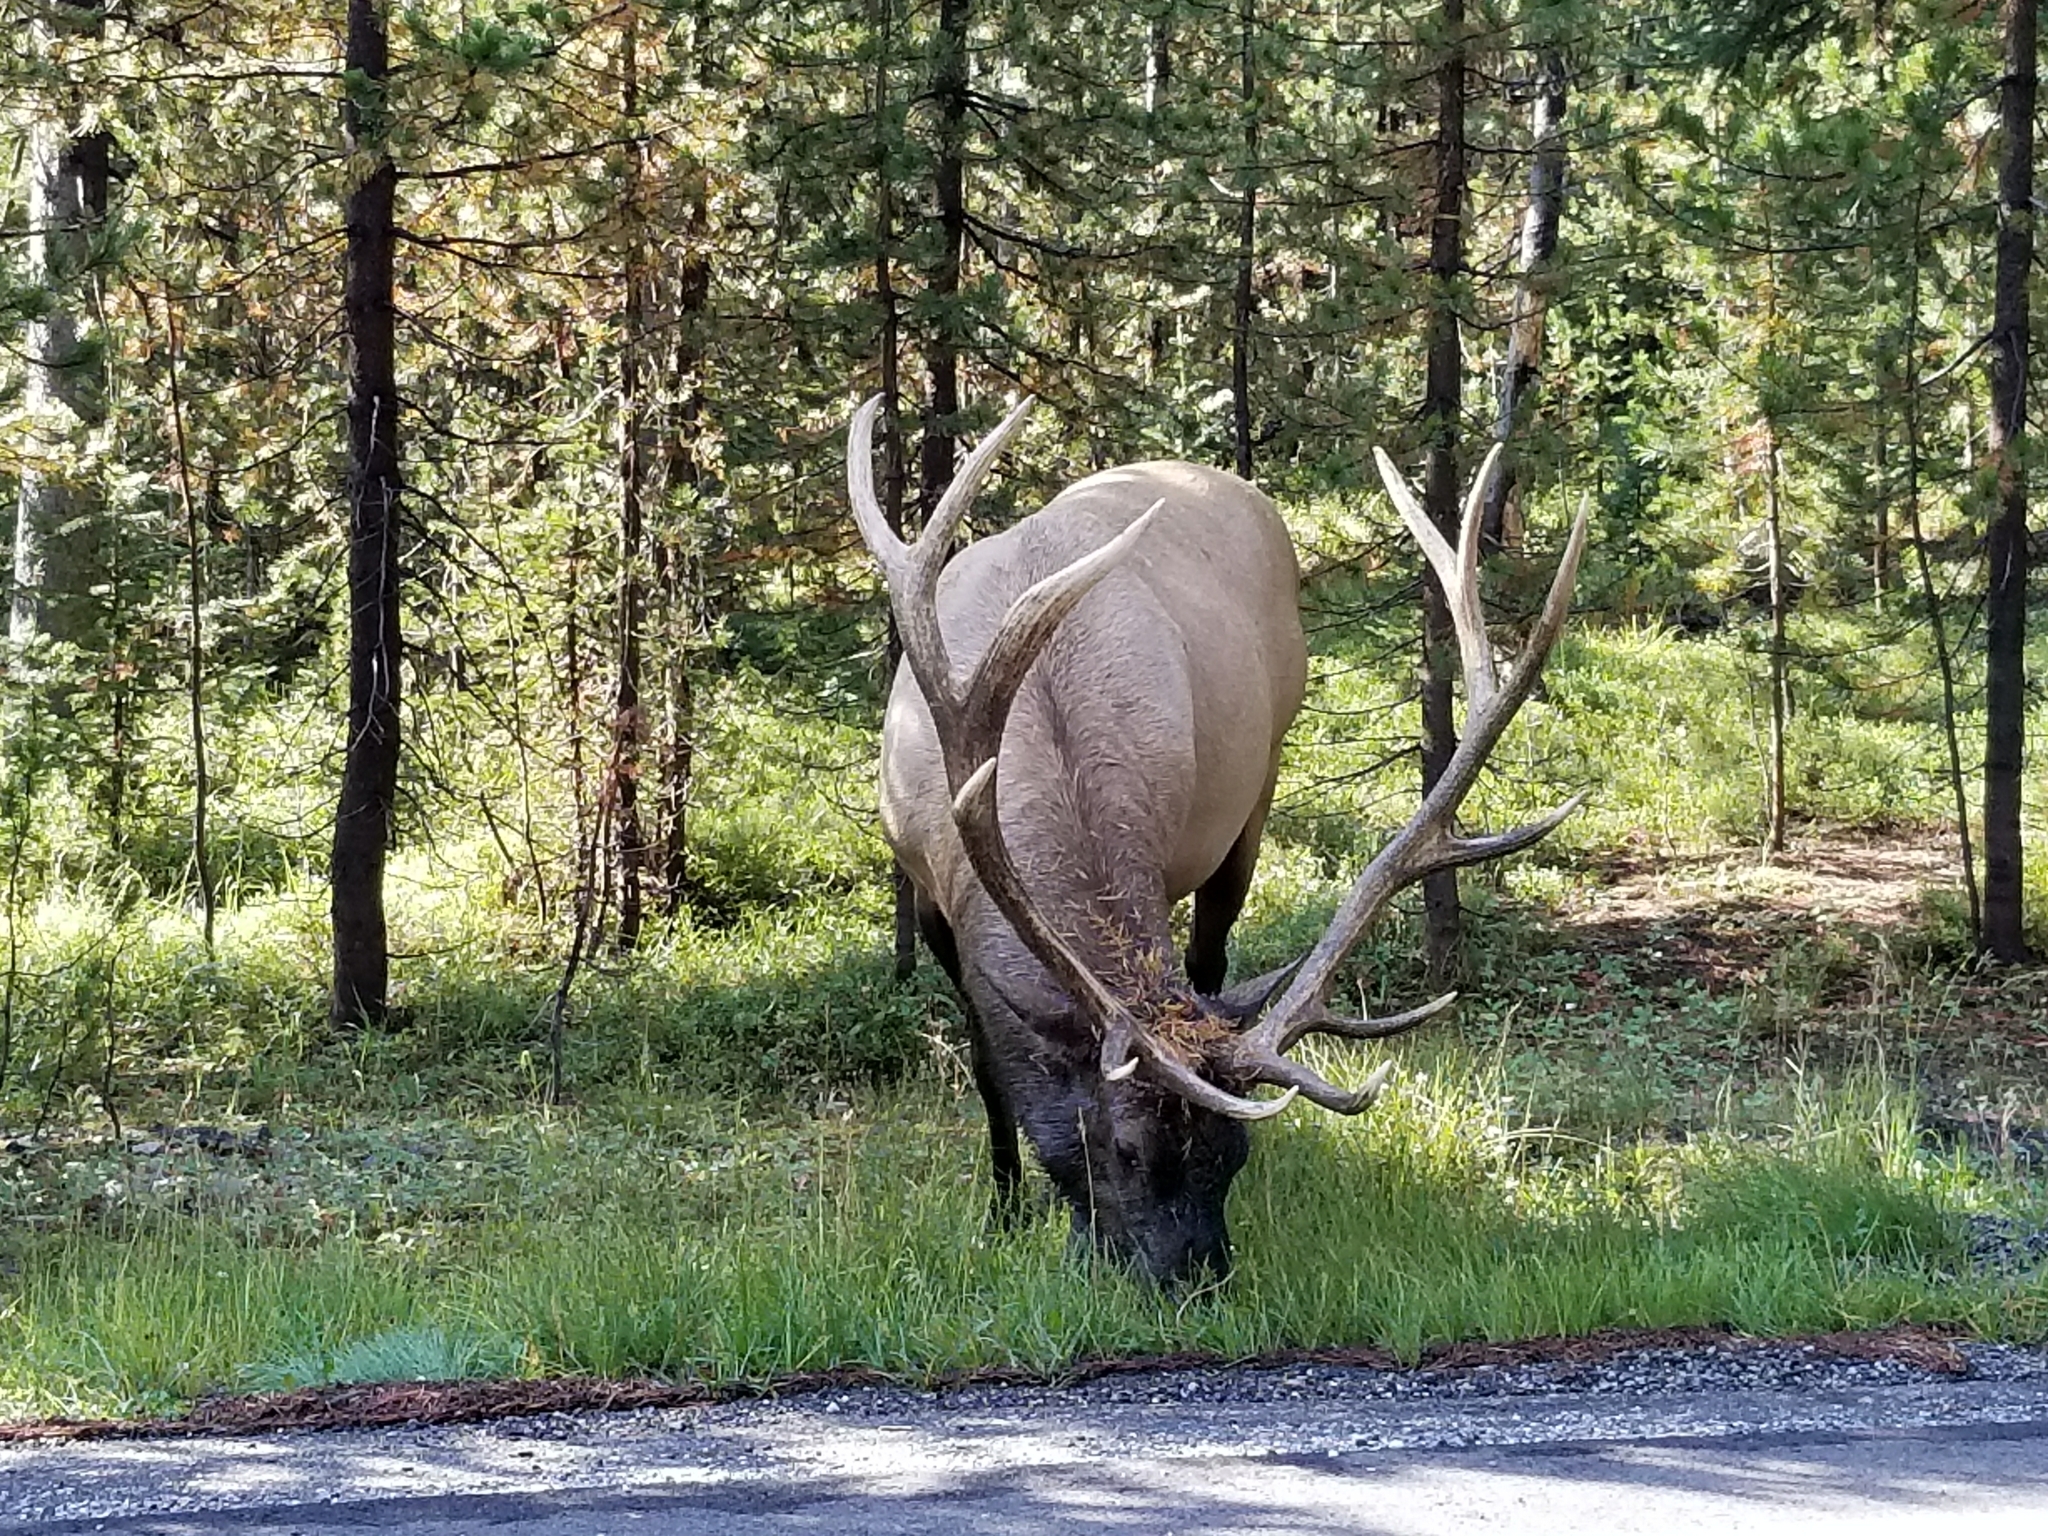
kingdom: Animalia
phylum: Chordata
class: Mammalia
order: Artiodactyla
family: Cervidae
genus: Cervus
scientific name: Cervus elaphus
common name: Red deer
